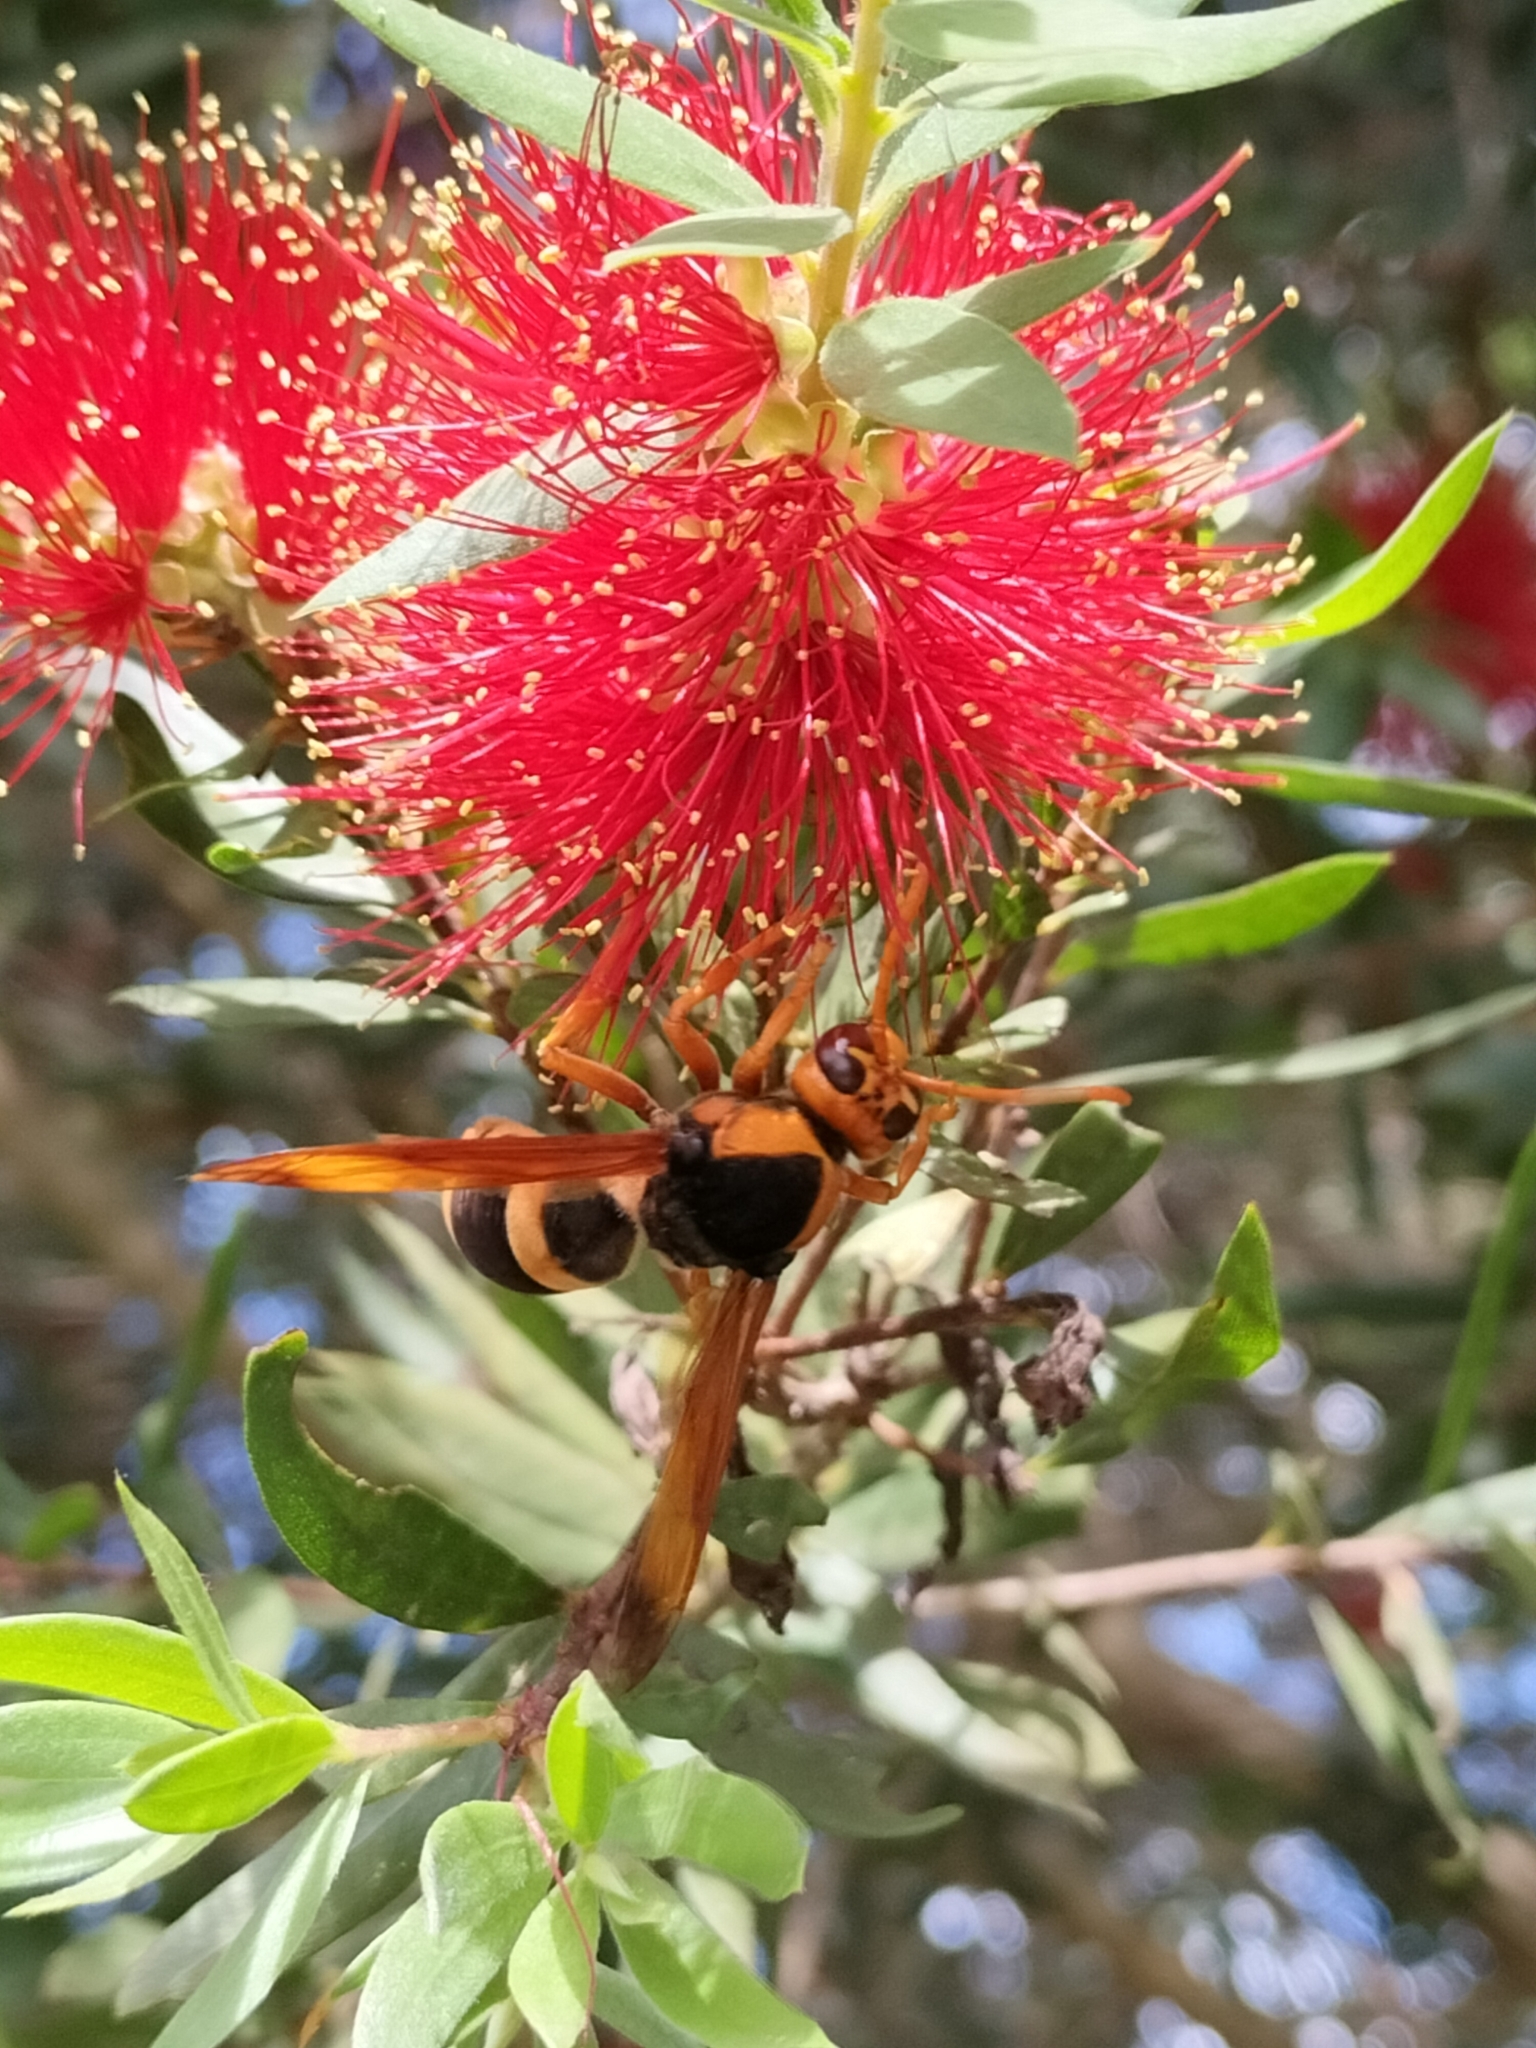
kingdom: Animalia
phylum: Arthropoda
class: Insecta
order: Hymenoptera
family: Eumenidae
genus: Abispa
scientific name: Abispa splendida
